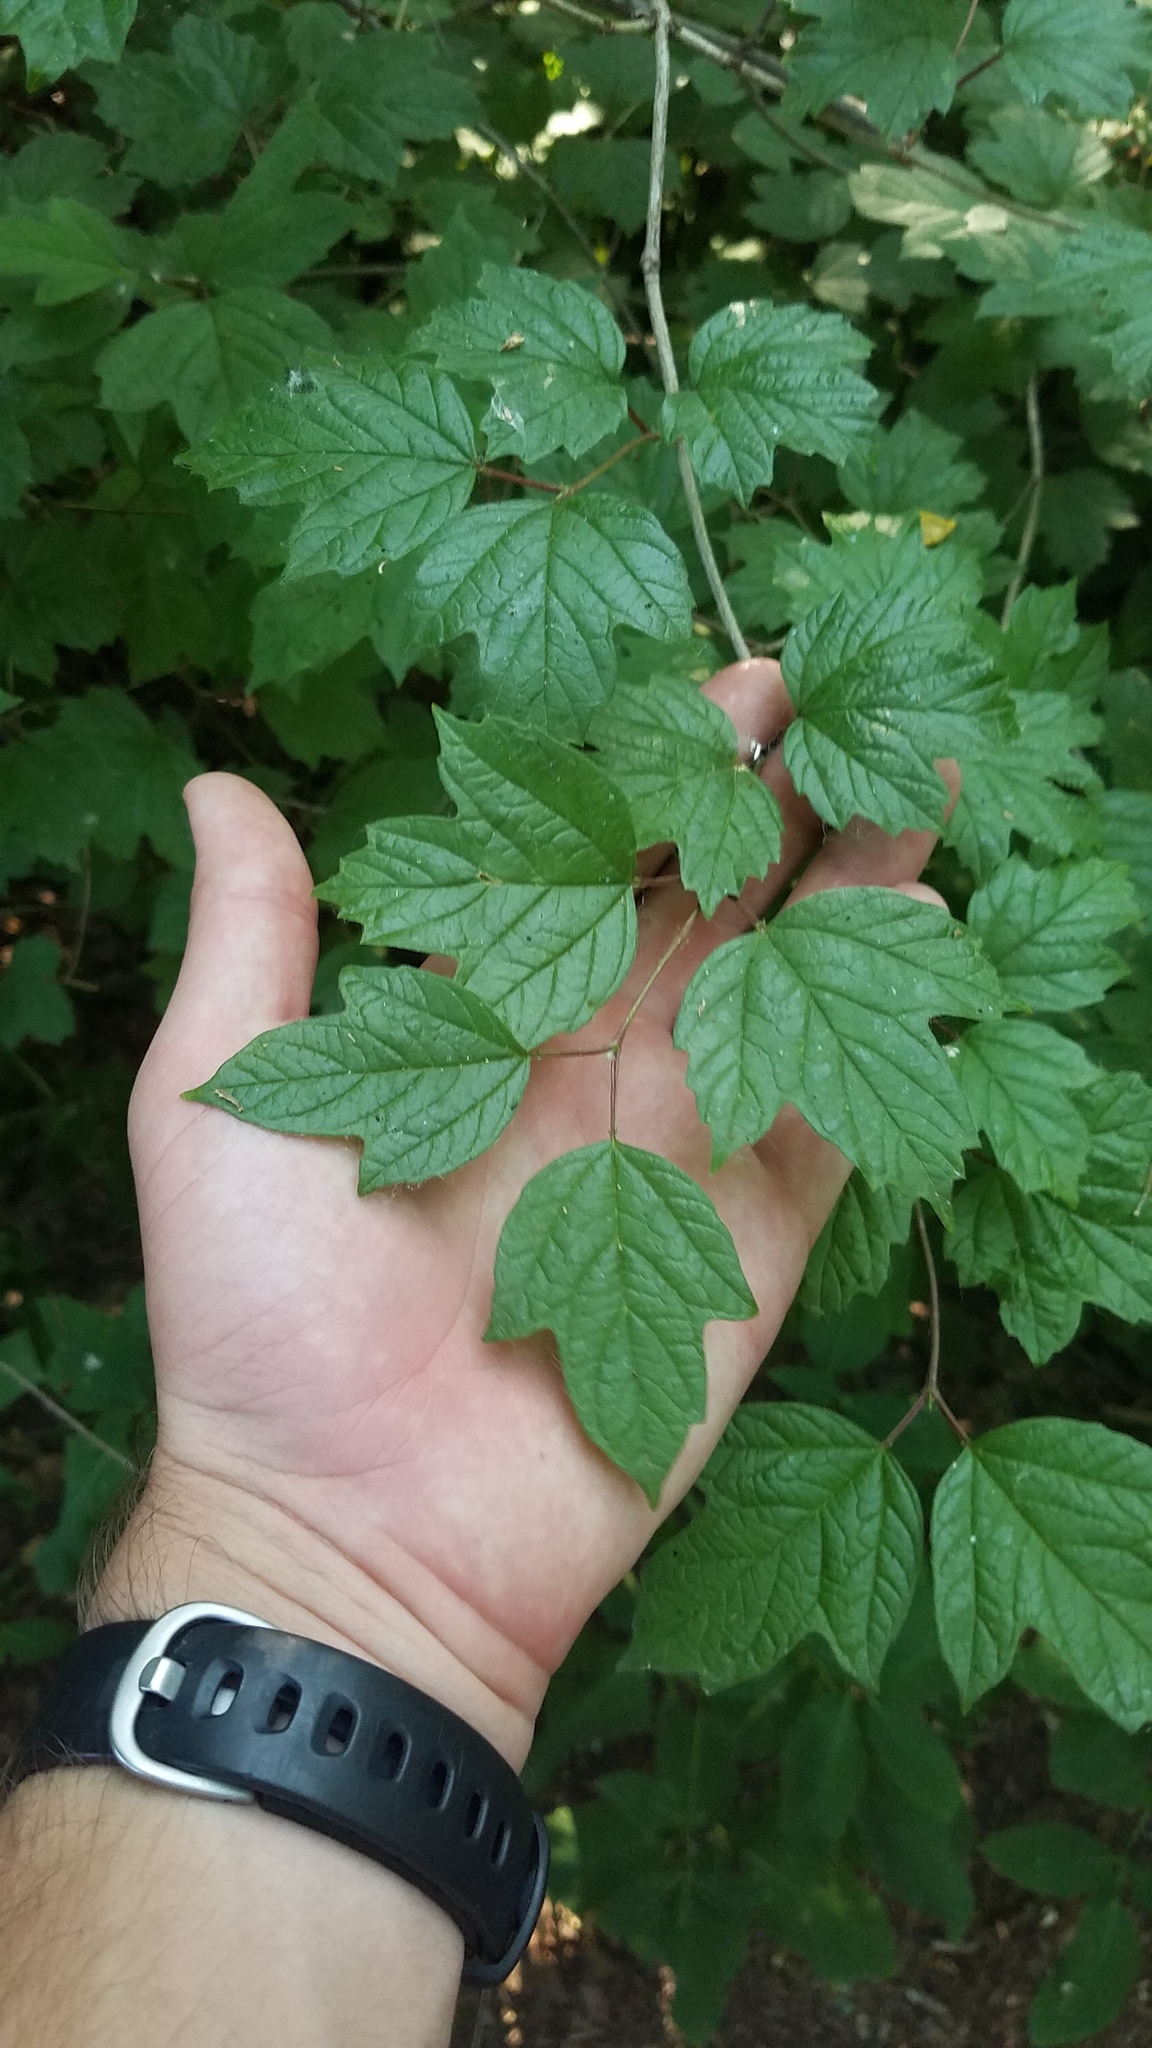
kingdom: Plantae
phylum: Tracheophyta
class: Magnoliopsida
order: Dipsacales
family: Viburnaceae
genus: Viburnum
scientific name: Viburnum opulus
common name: Guelder-rose
